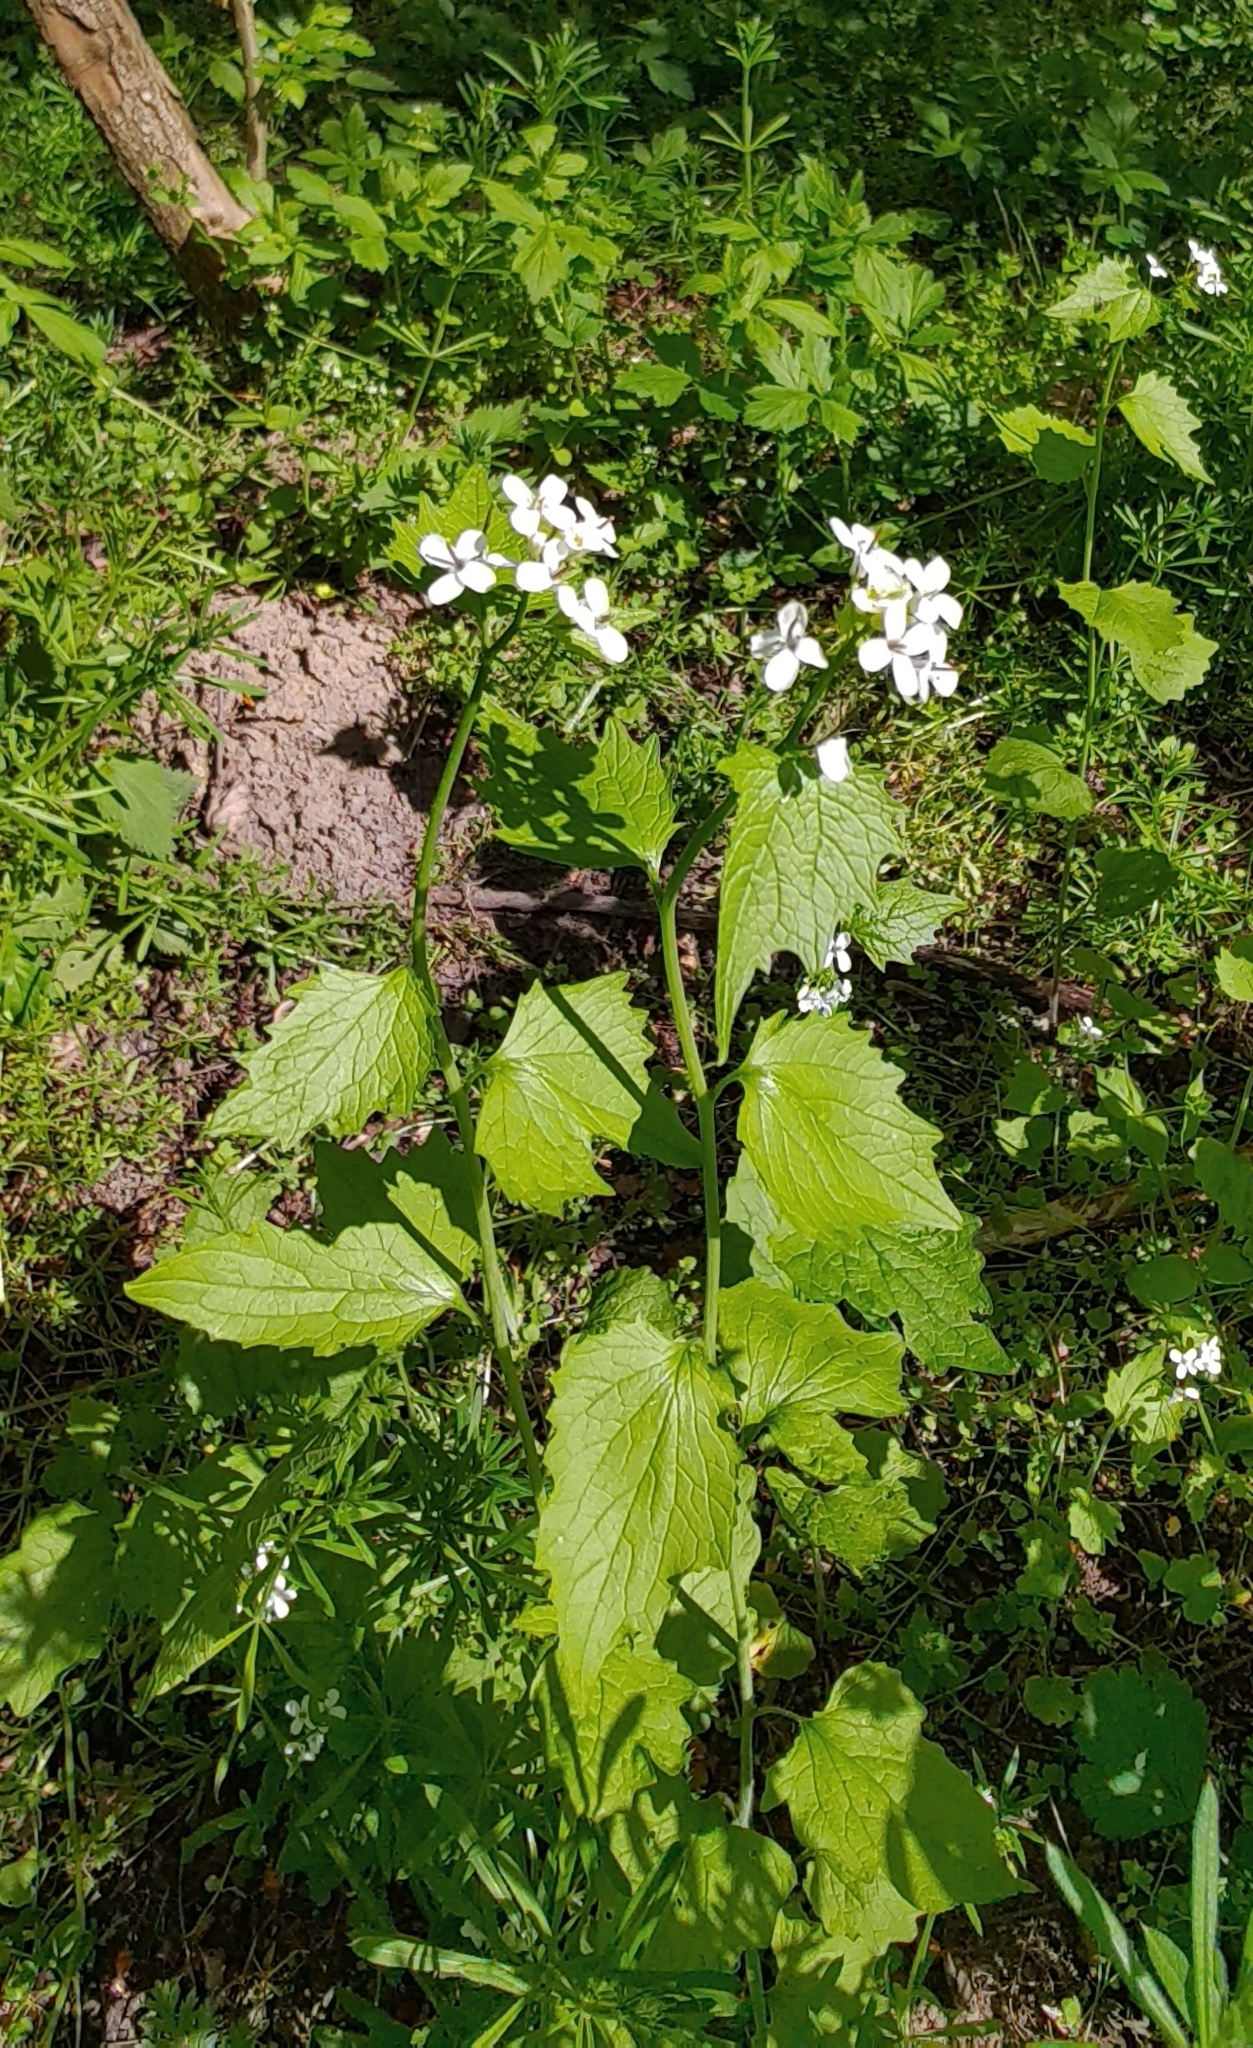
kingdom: Plantae
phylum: Tracheophyta
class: Magnoliopsida
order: Brassicales
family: Brassicaceae
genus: Alliaria
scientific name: Alliaria petiolata
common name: Garlic mustard
